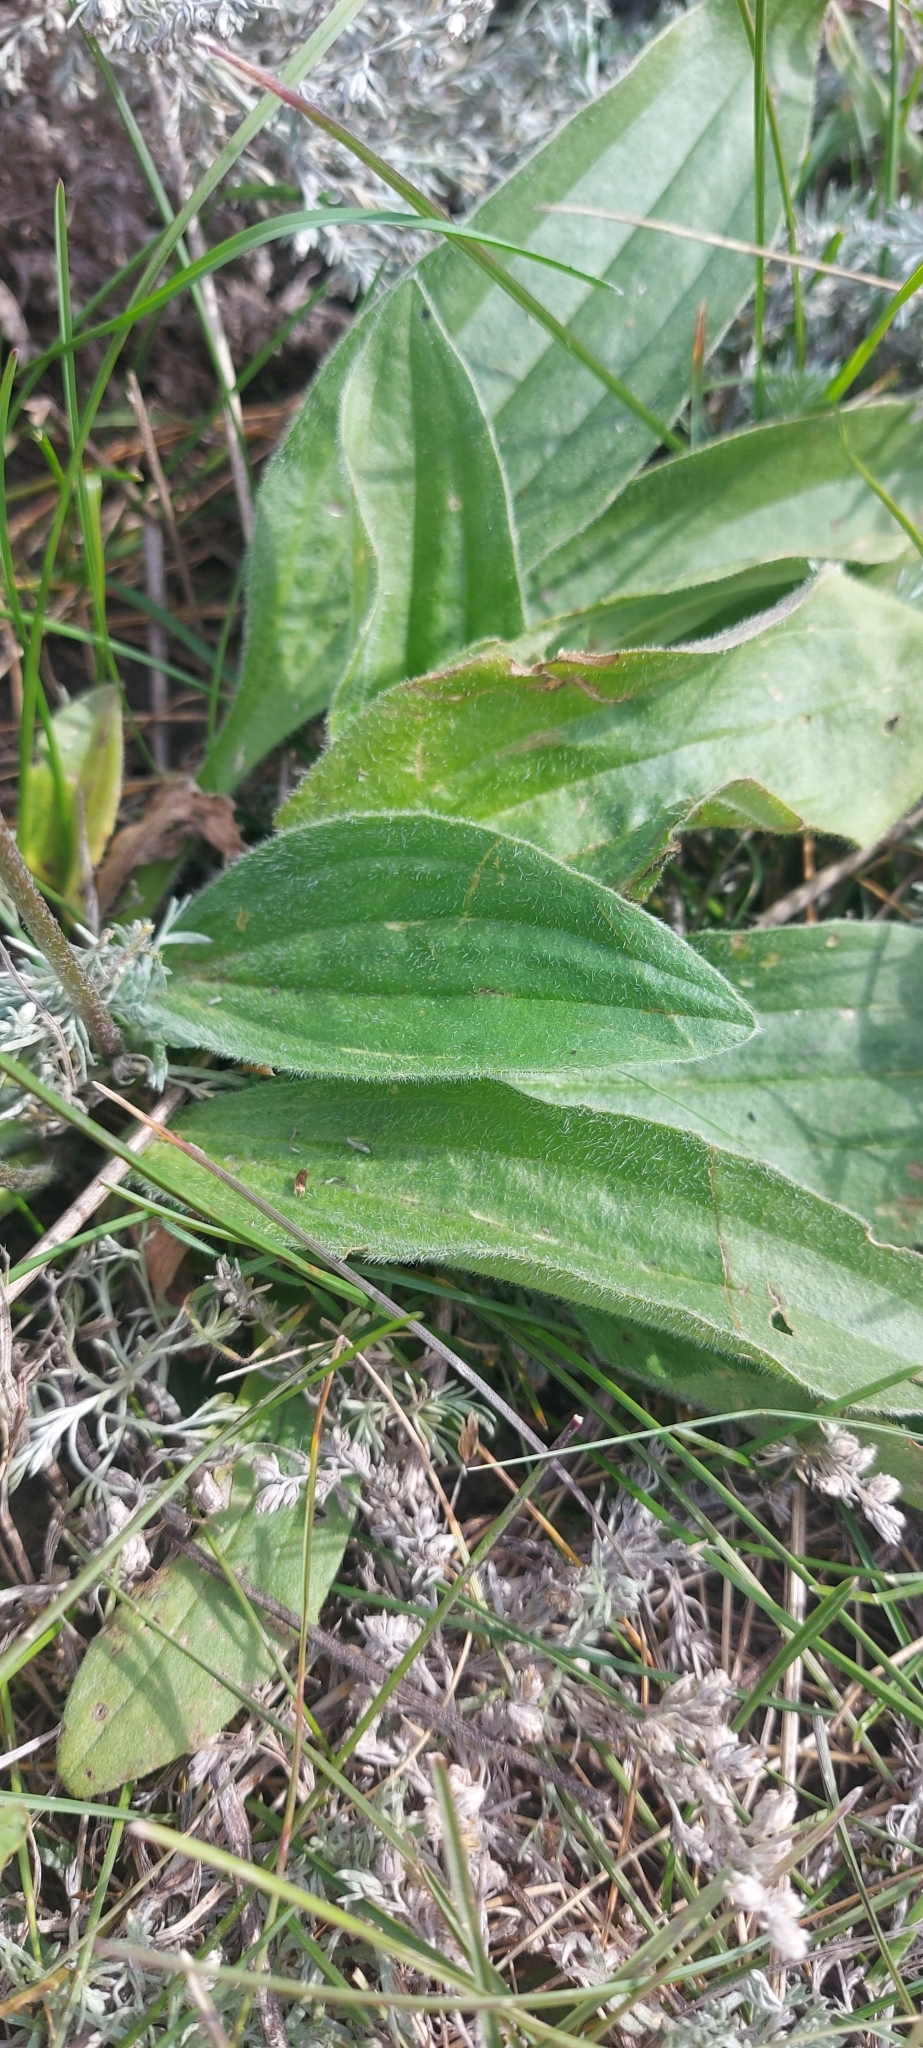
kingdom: Plantae
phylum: Tracheophyta
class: Magnoliopsida
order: Lamiales
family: Plantaginaceae
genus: Plantago
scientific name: Plantago media
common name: Hoary plantain
